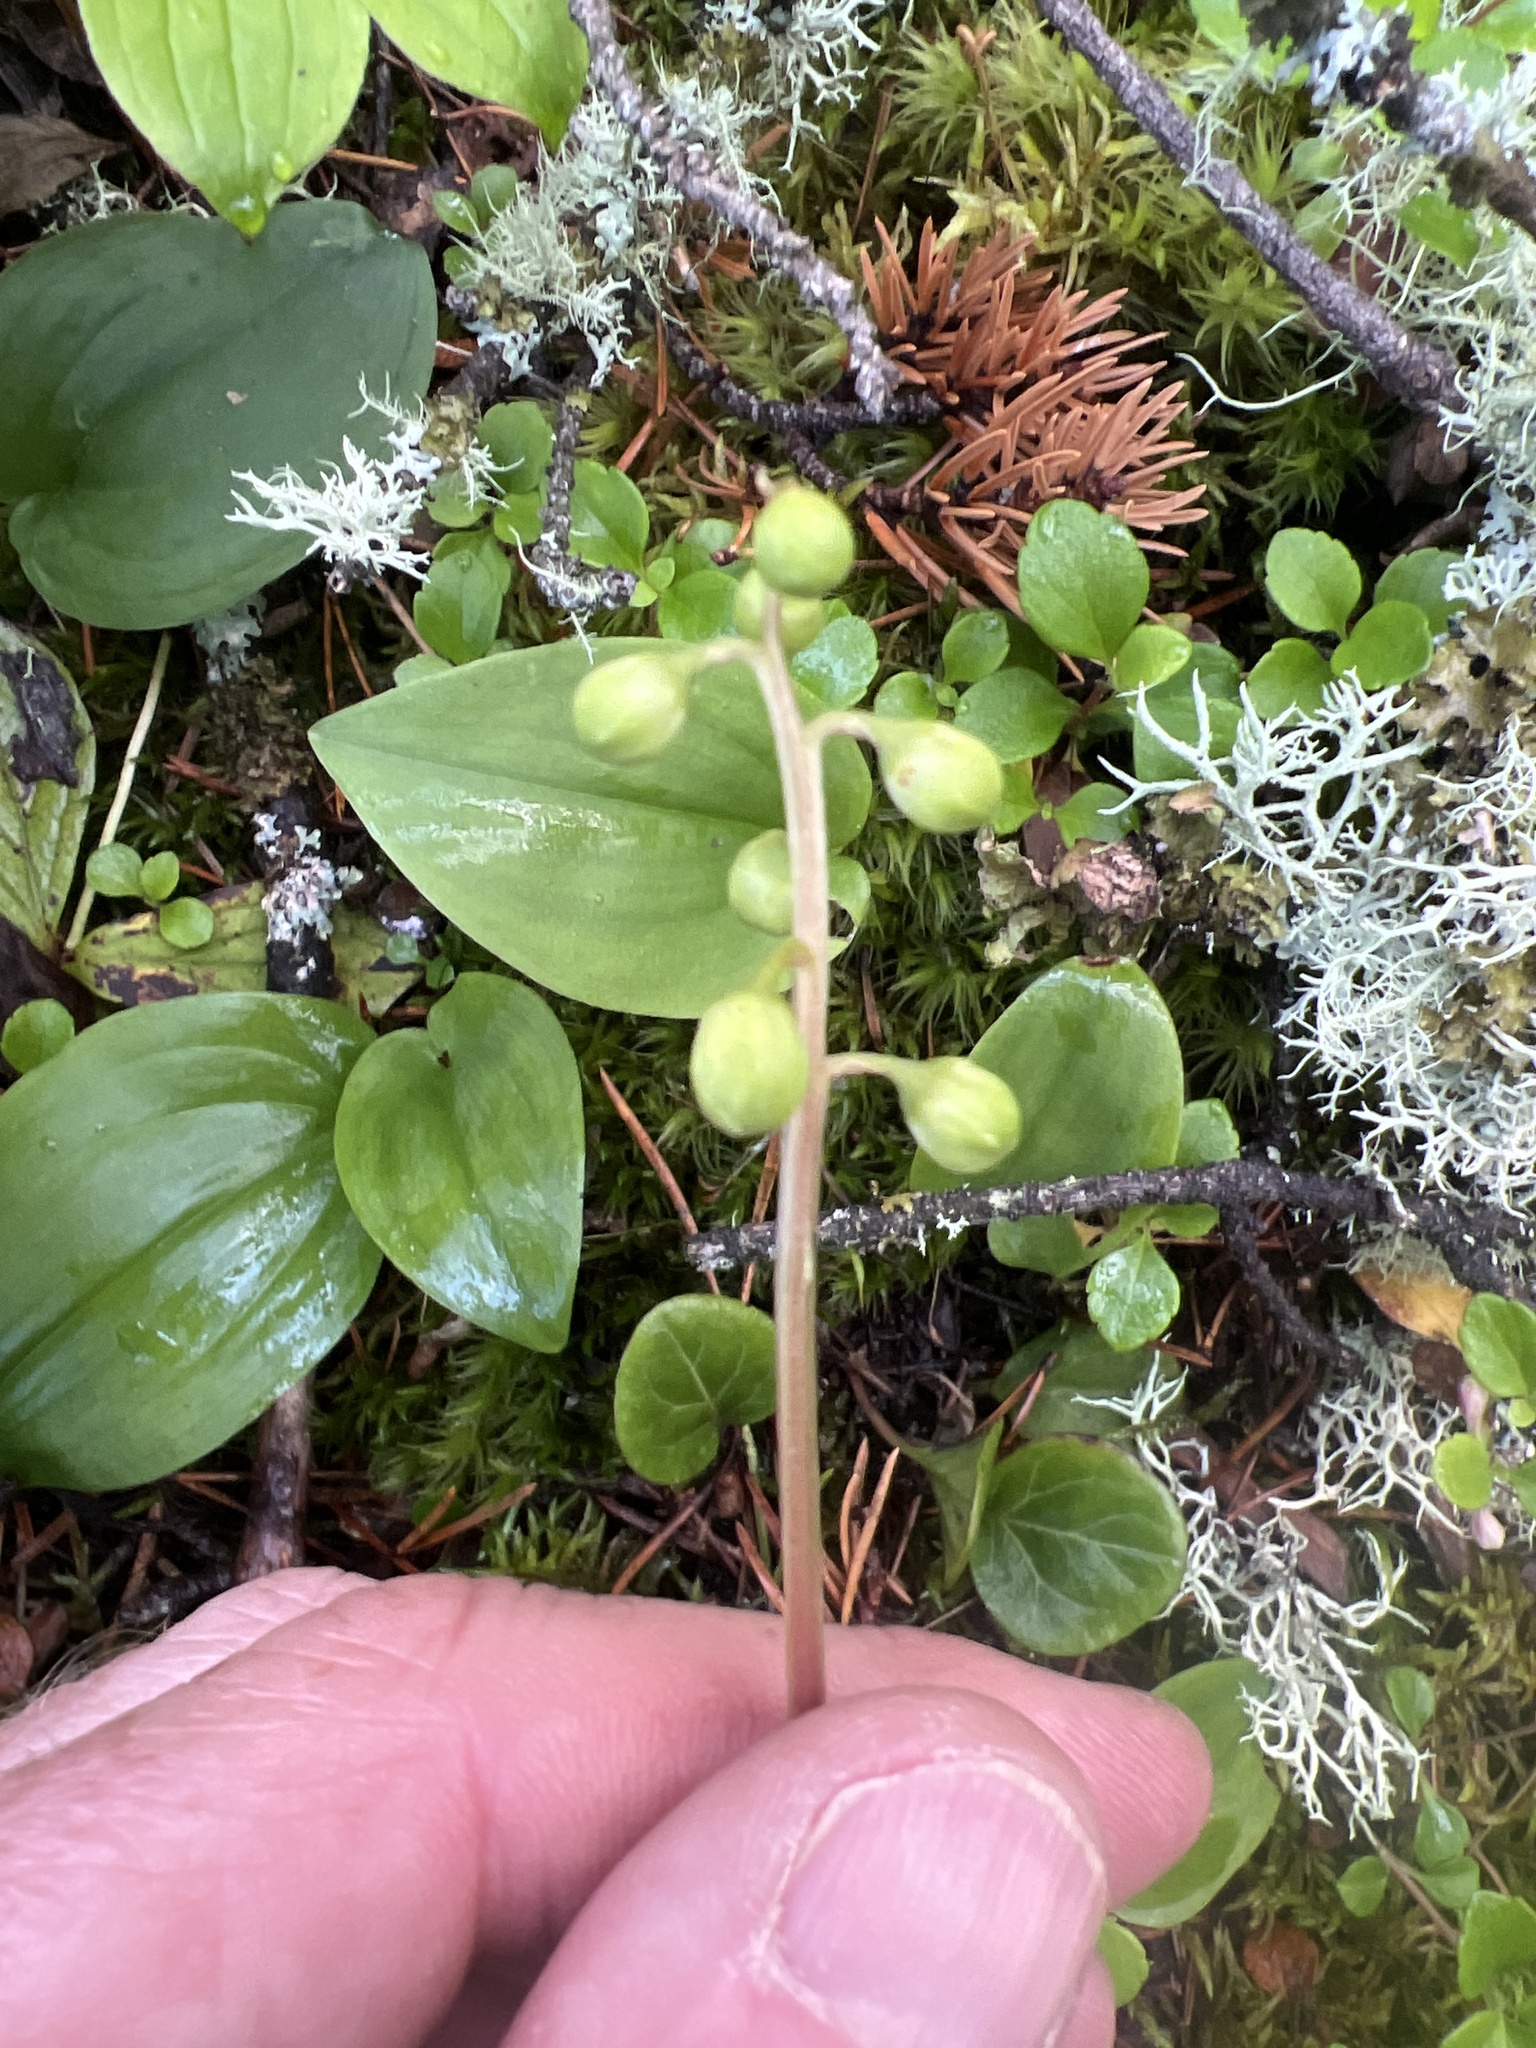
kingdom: Plantae
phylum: Tracheophyta
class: Magnoliopsida
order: Ericales
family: Ericaceae
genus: Pyrola
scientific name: Pyrola chlorantha
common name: Green wintergreen
